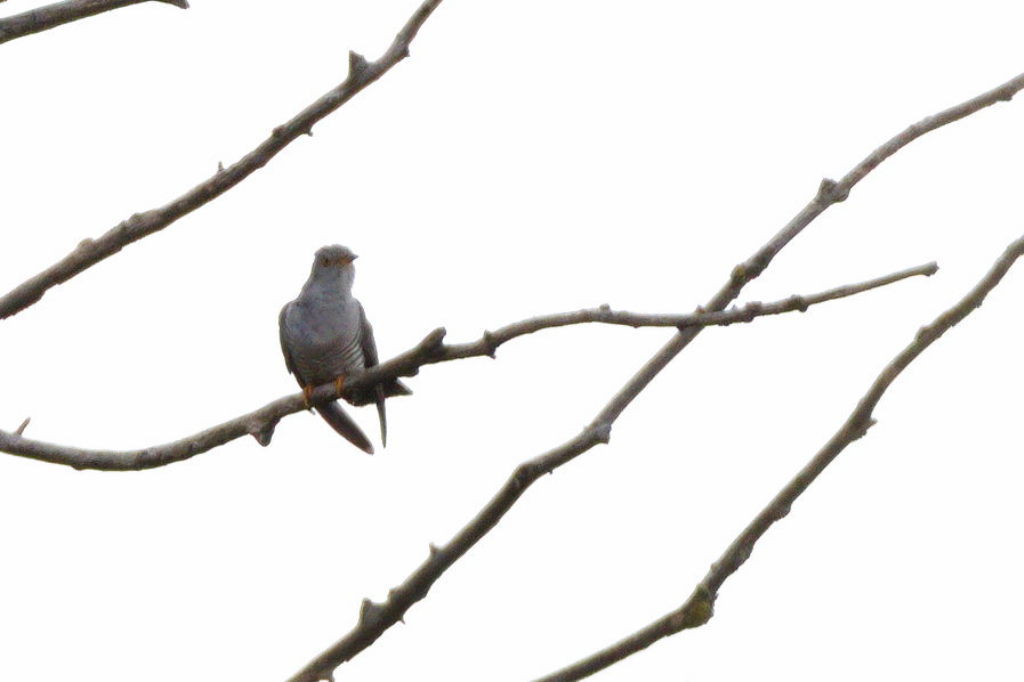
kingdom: Animalia
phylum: Chordata
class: Aves
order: Cuculiformes
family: Cuculidae
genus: Cuculus
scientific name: Cuculus canorus
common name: Common cuckoo
